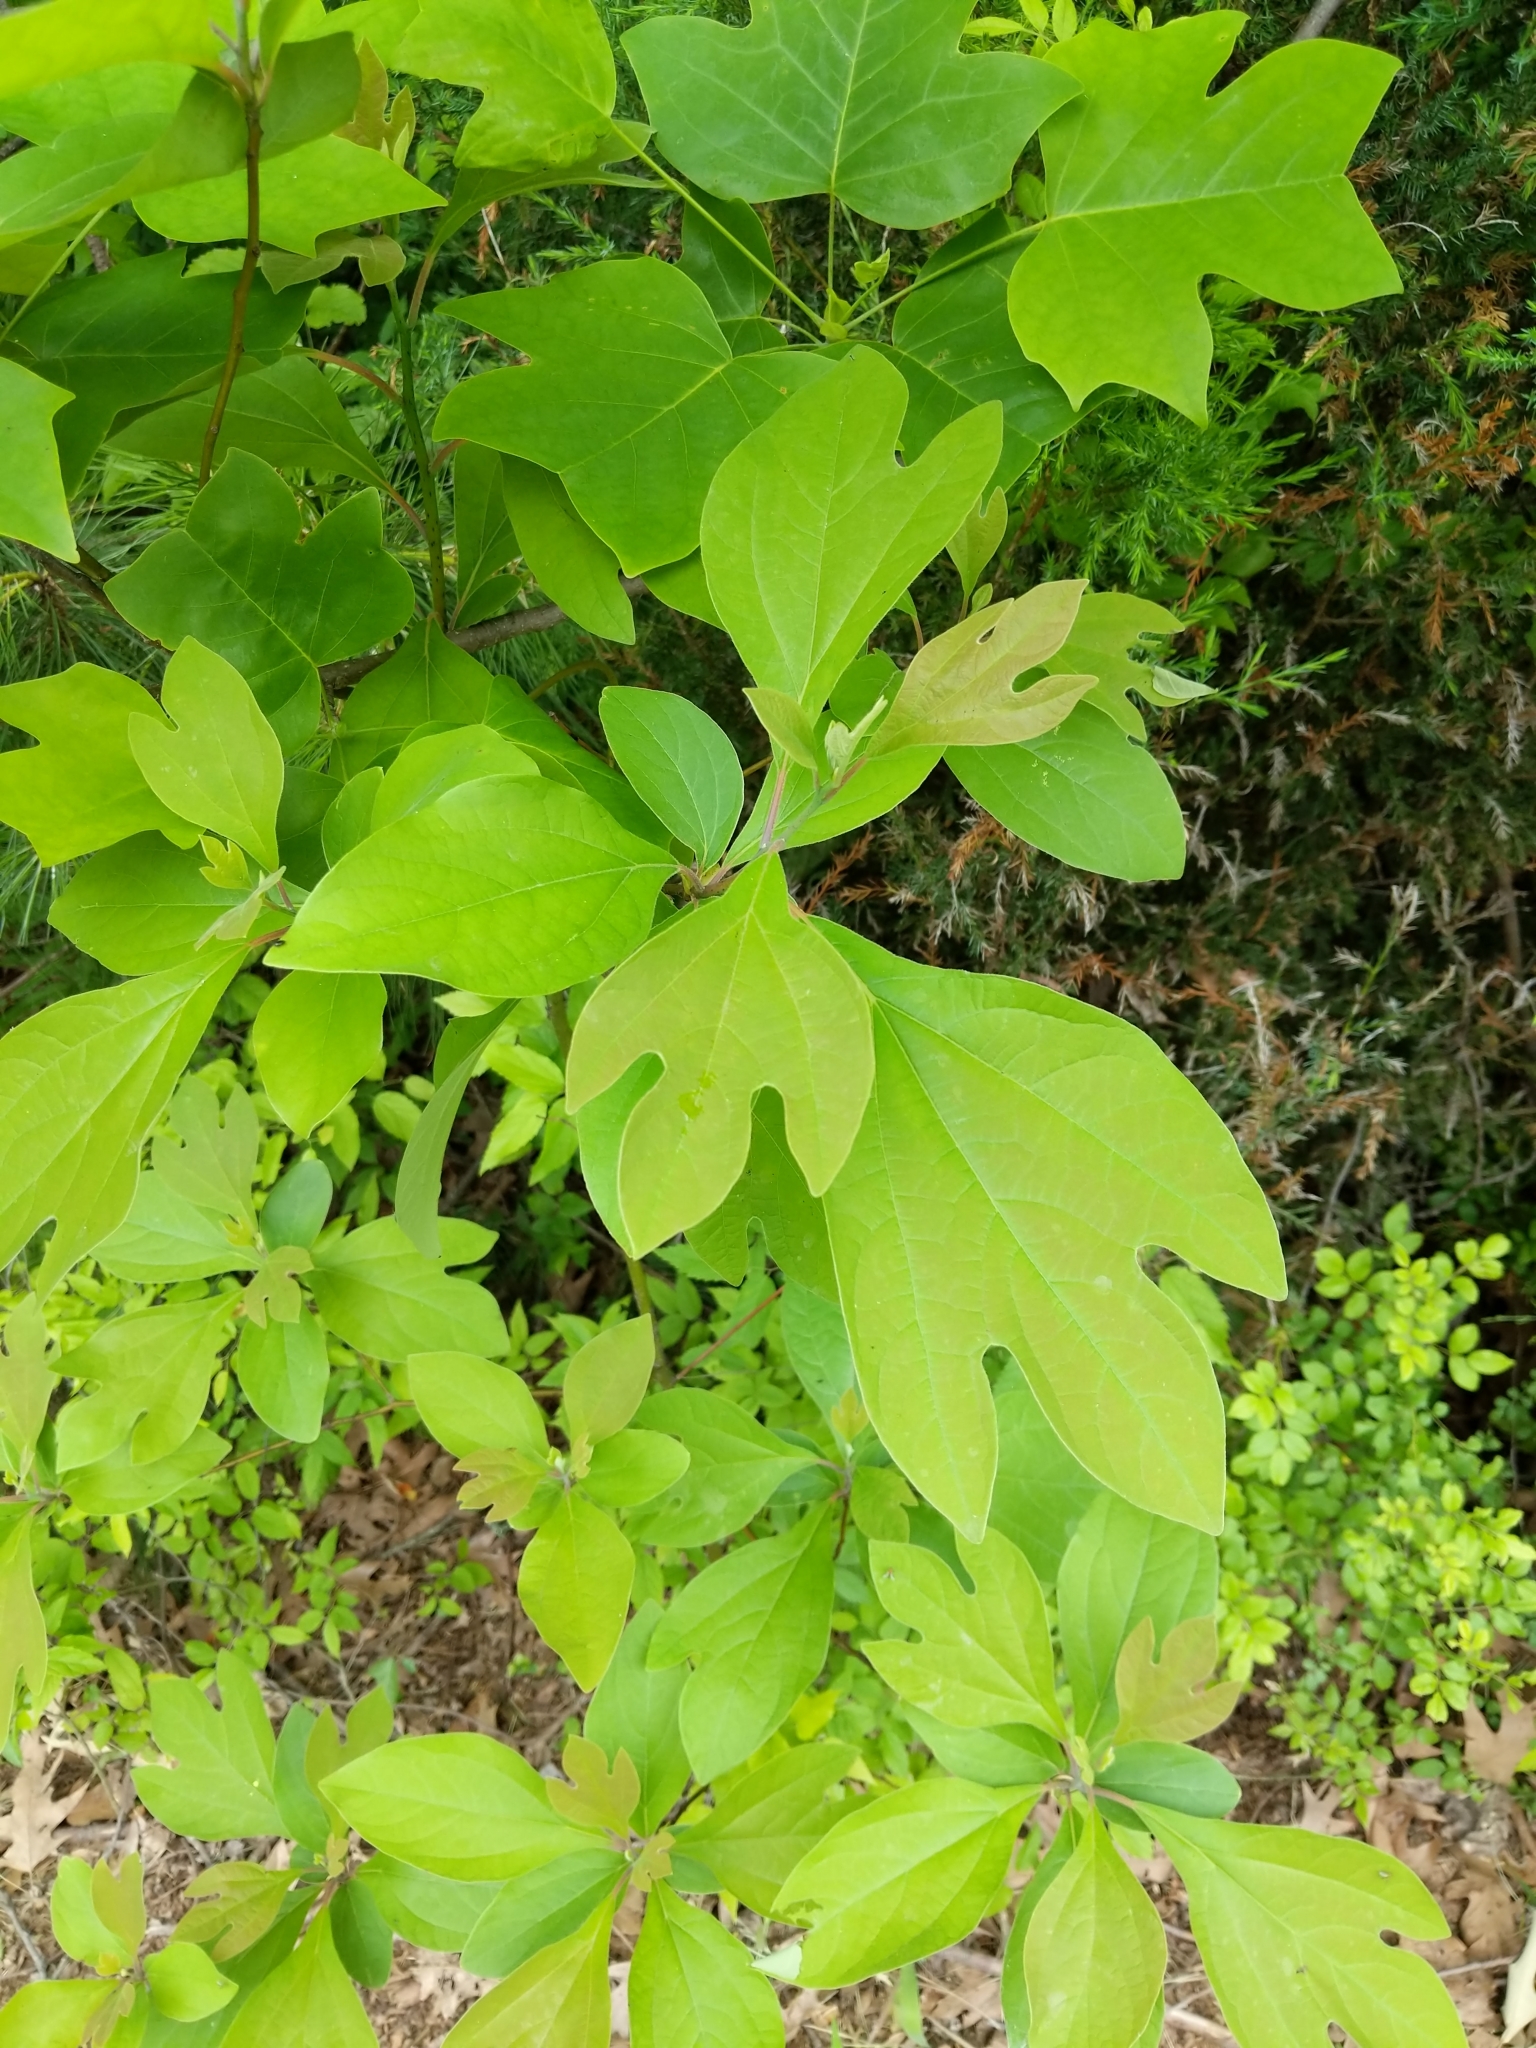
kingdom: Plantae
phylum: Tracheophyta
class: Magnoliopsida
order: Laurales
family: Lauraceae
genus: Sassafras
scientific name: Sassafras albidum
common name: Sassafras
